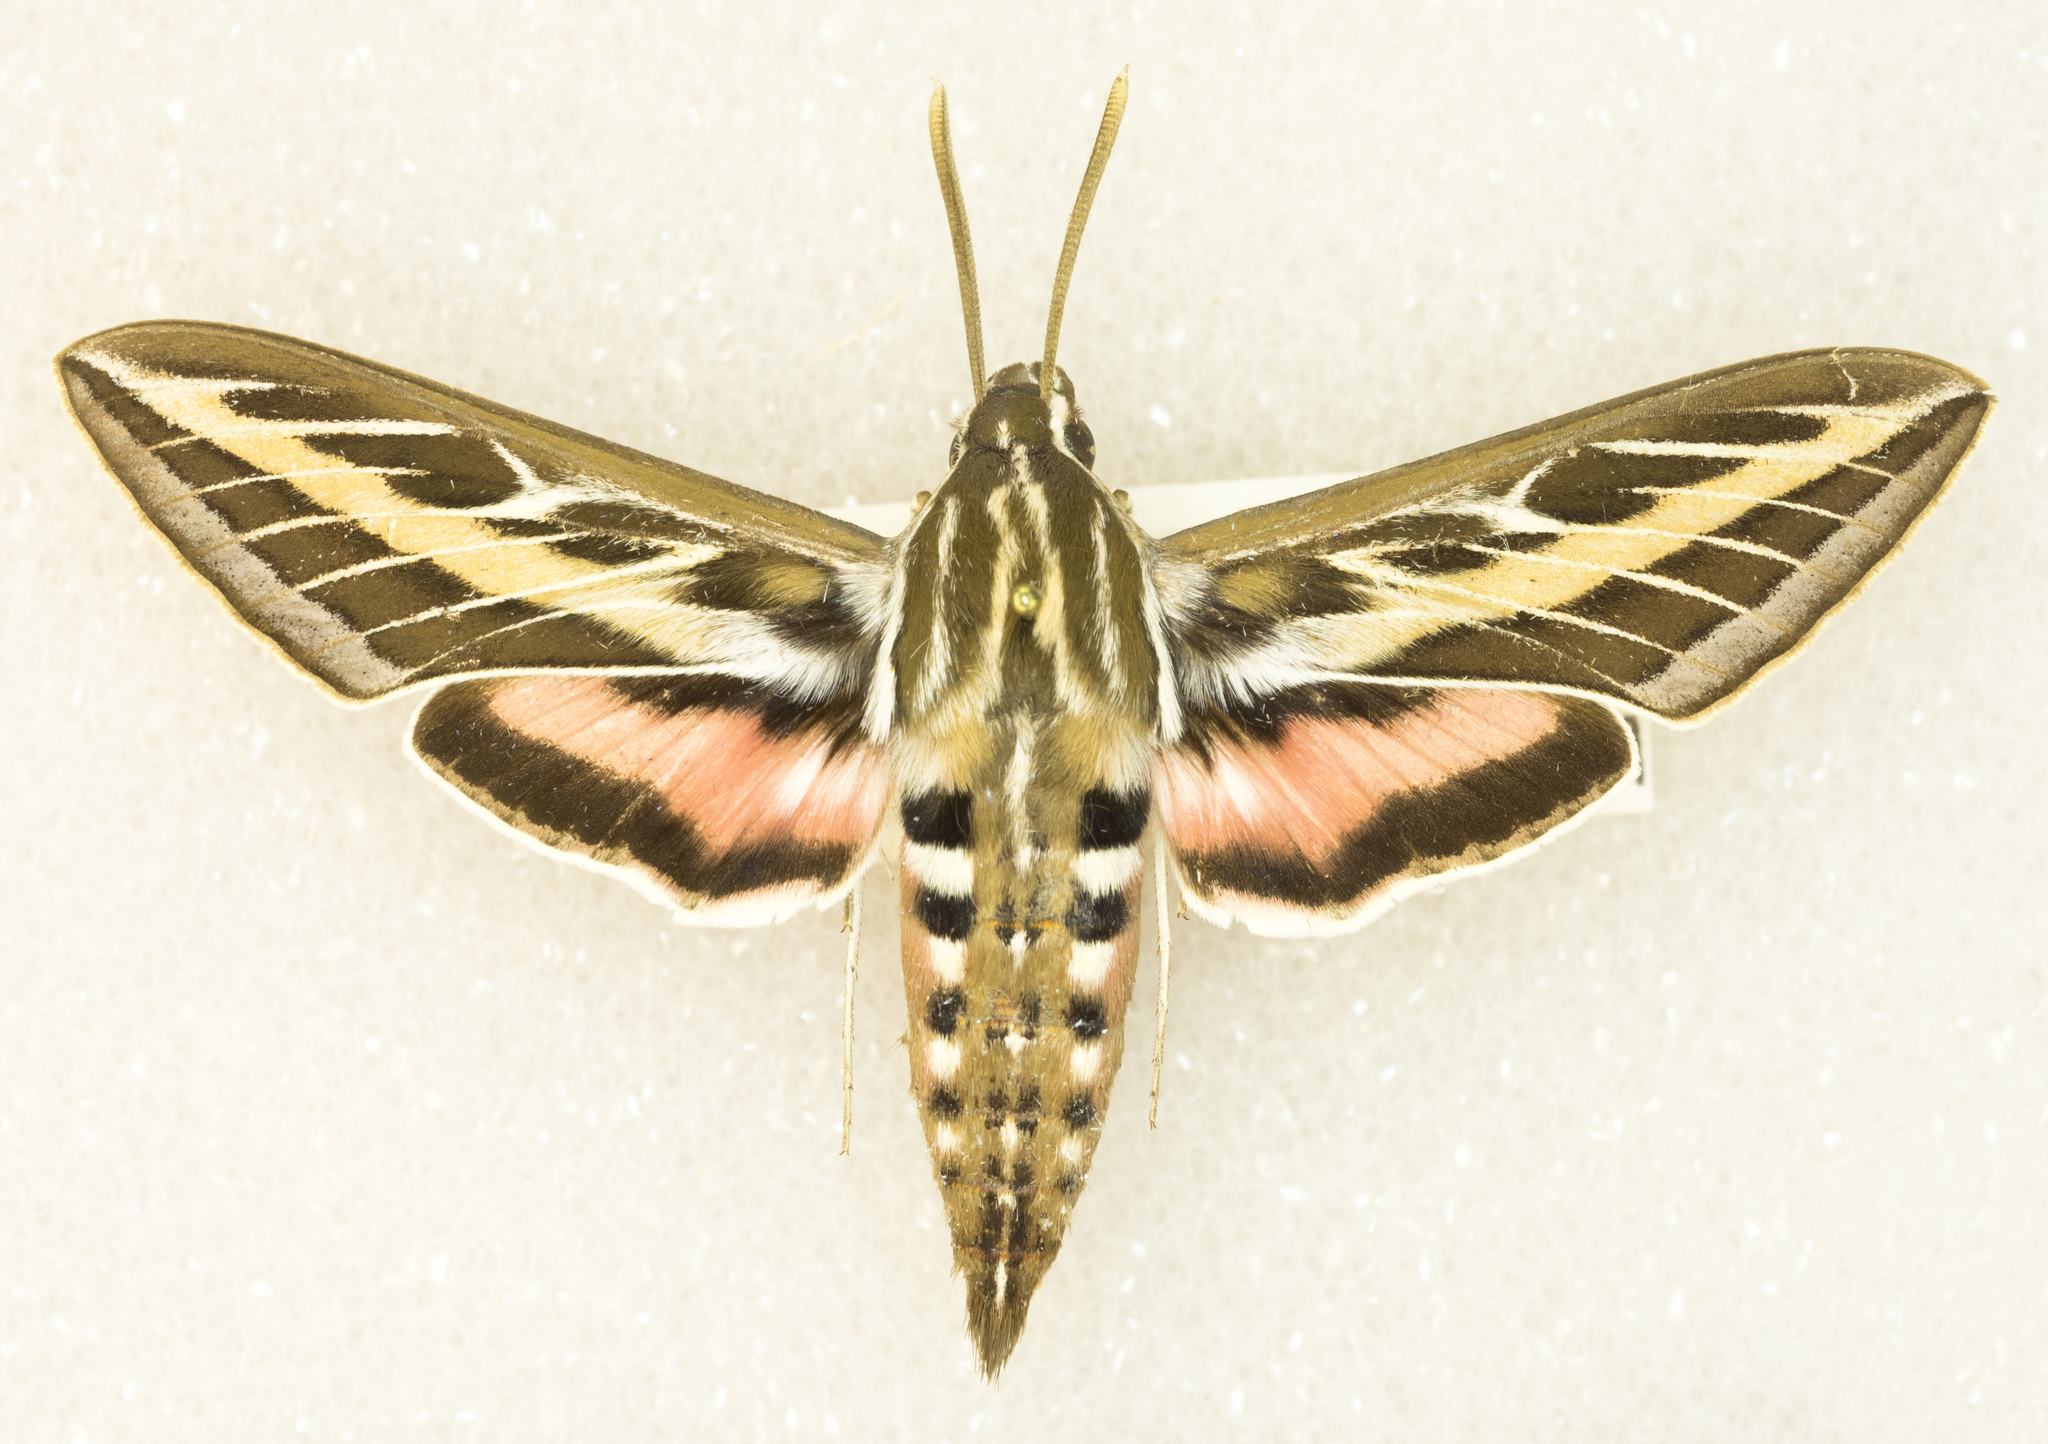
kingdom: Animalia
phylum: Arthropoda
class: Insecta
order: Lepidoptera
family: Sphingidae
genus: Hyles
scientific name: Hyles lineata
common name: White-lined sphinx
